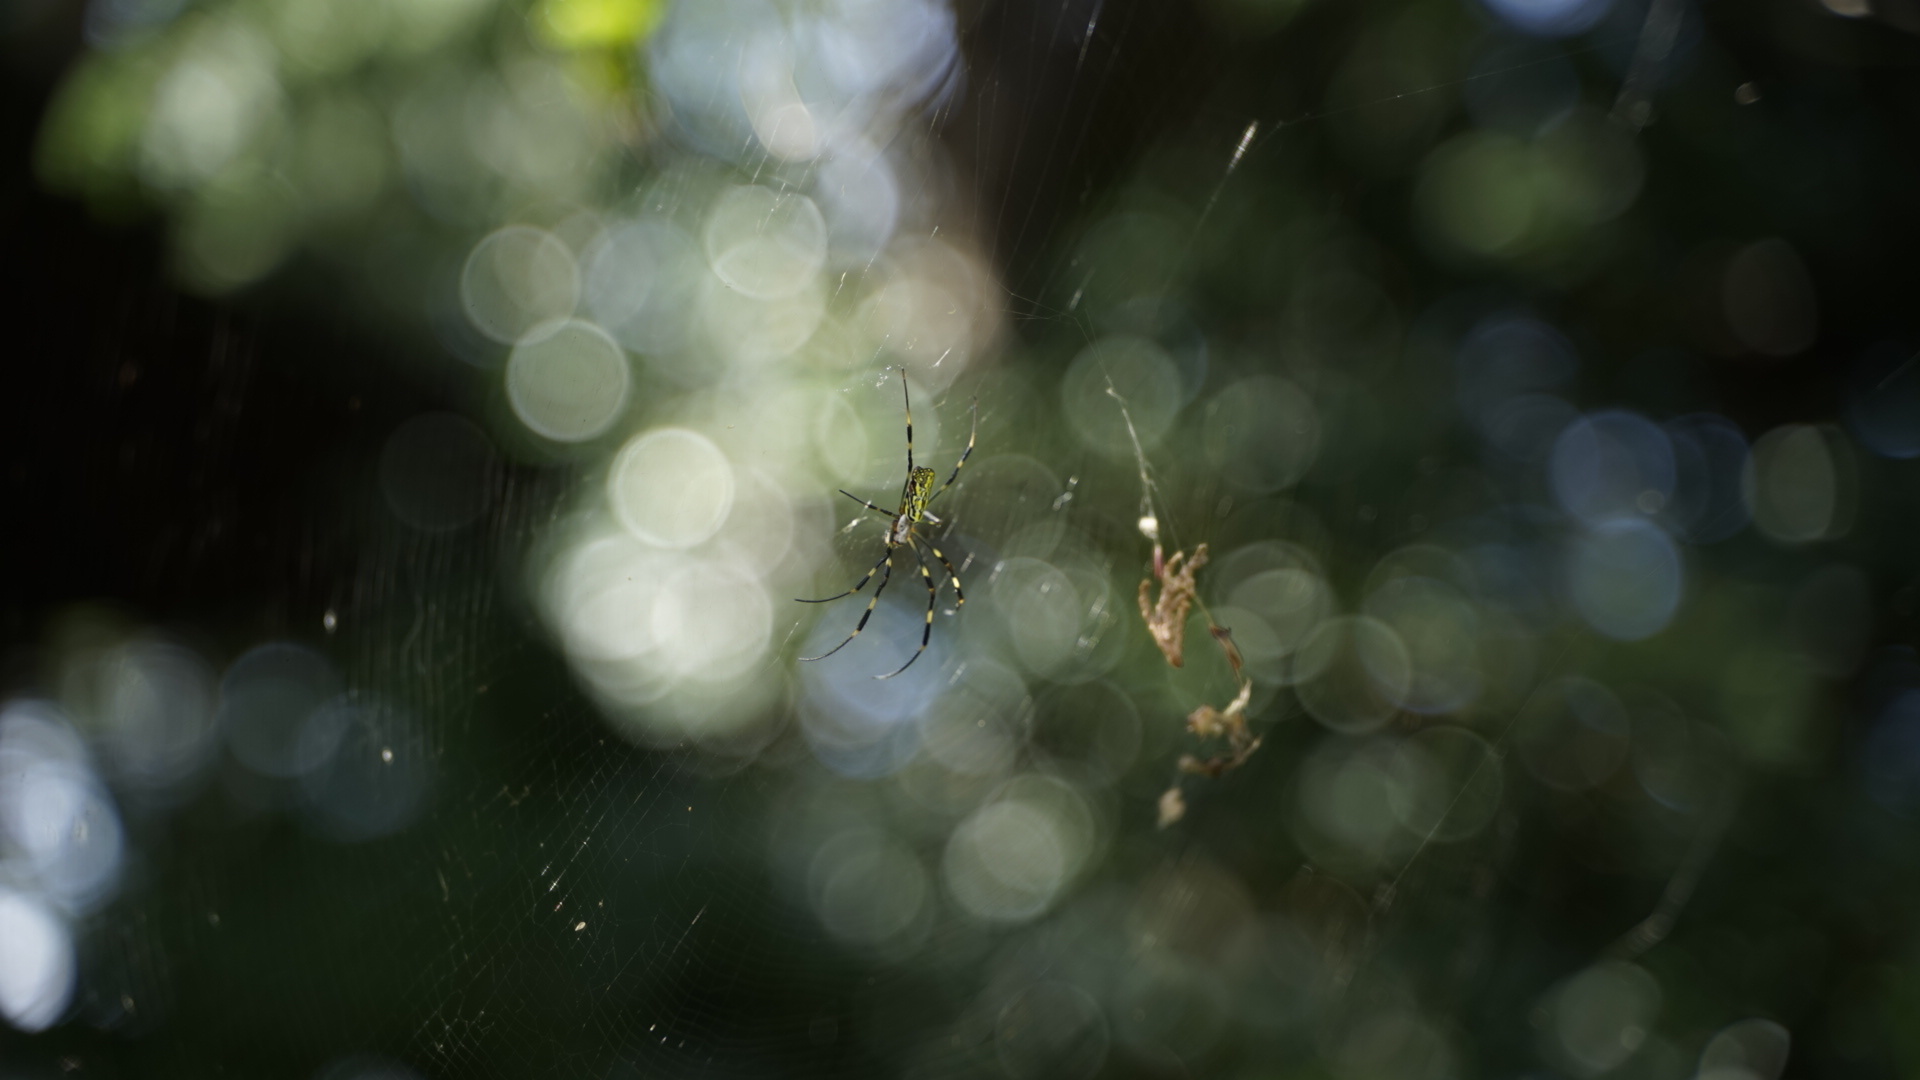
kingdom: Animalia
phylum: Arthropoda
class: Arachnida
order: Araneae
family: Araneidae
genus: Trichonephila
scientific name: Trichonephila clavata
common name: Jorō spider
